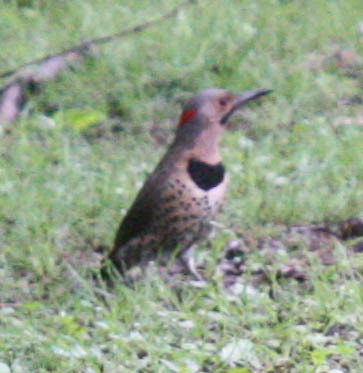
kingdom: Animalia
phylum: Chordata
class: Aves
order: Piciformes
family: Picidae
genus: Colaptes
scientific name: Colaptes auratus
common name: Northern flicker
